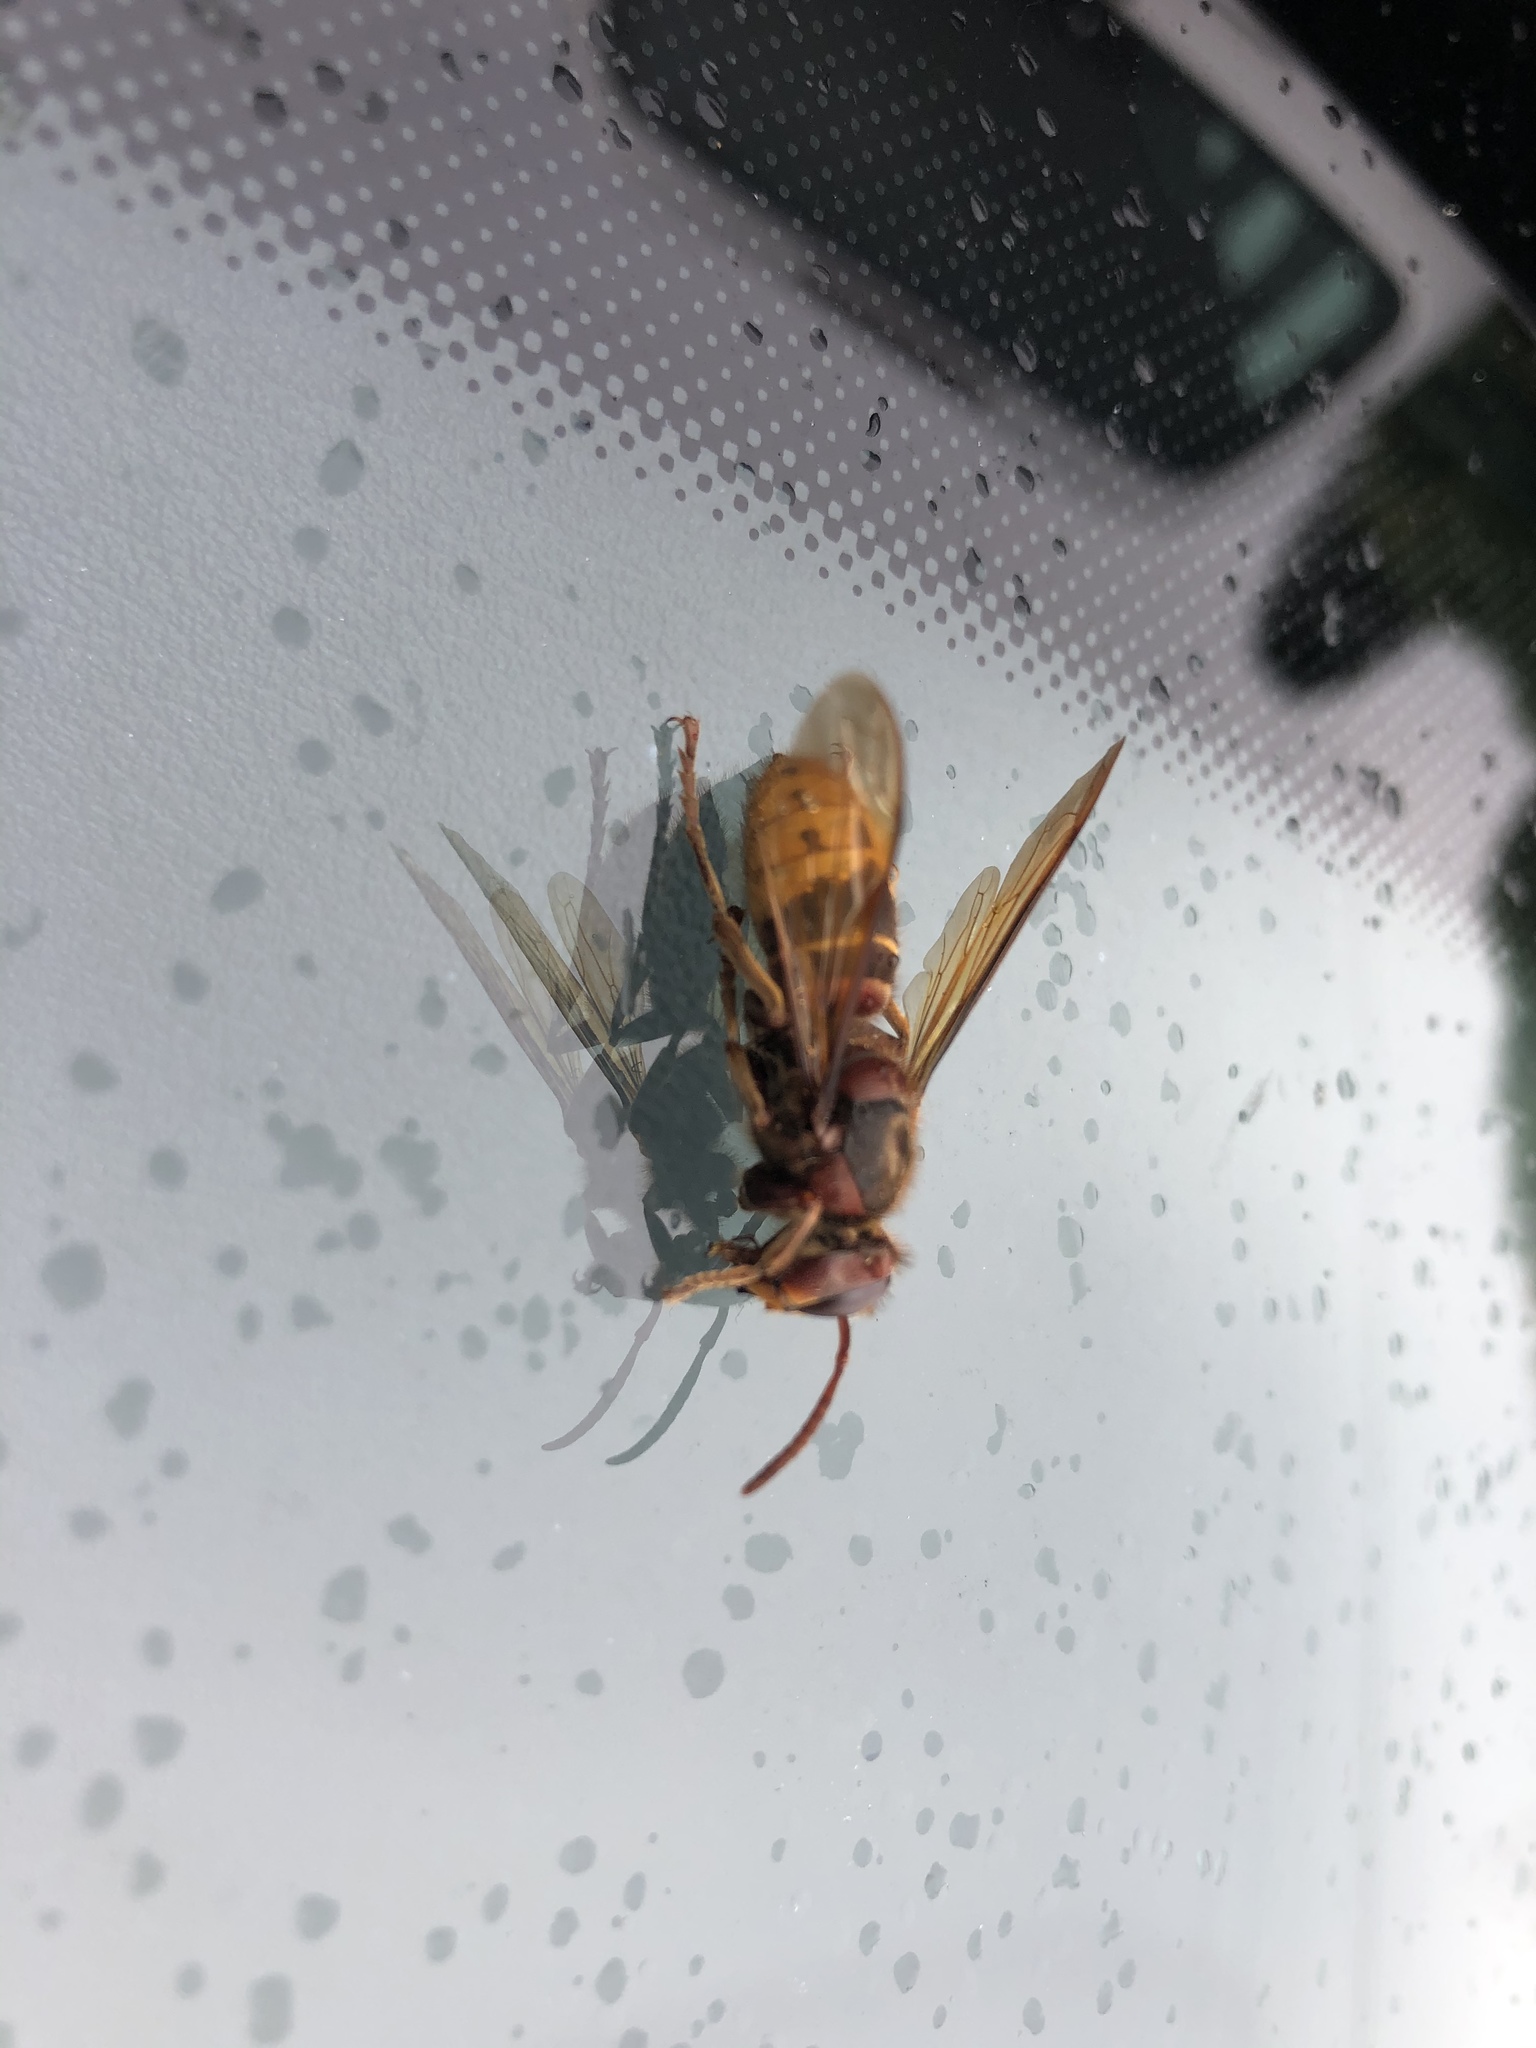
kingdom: Animalia
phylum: Arthropoda
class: Insecta
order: Hymenoptera
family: Vespidae
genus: Vespa
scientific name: Vespa crabro
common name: Hornet
